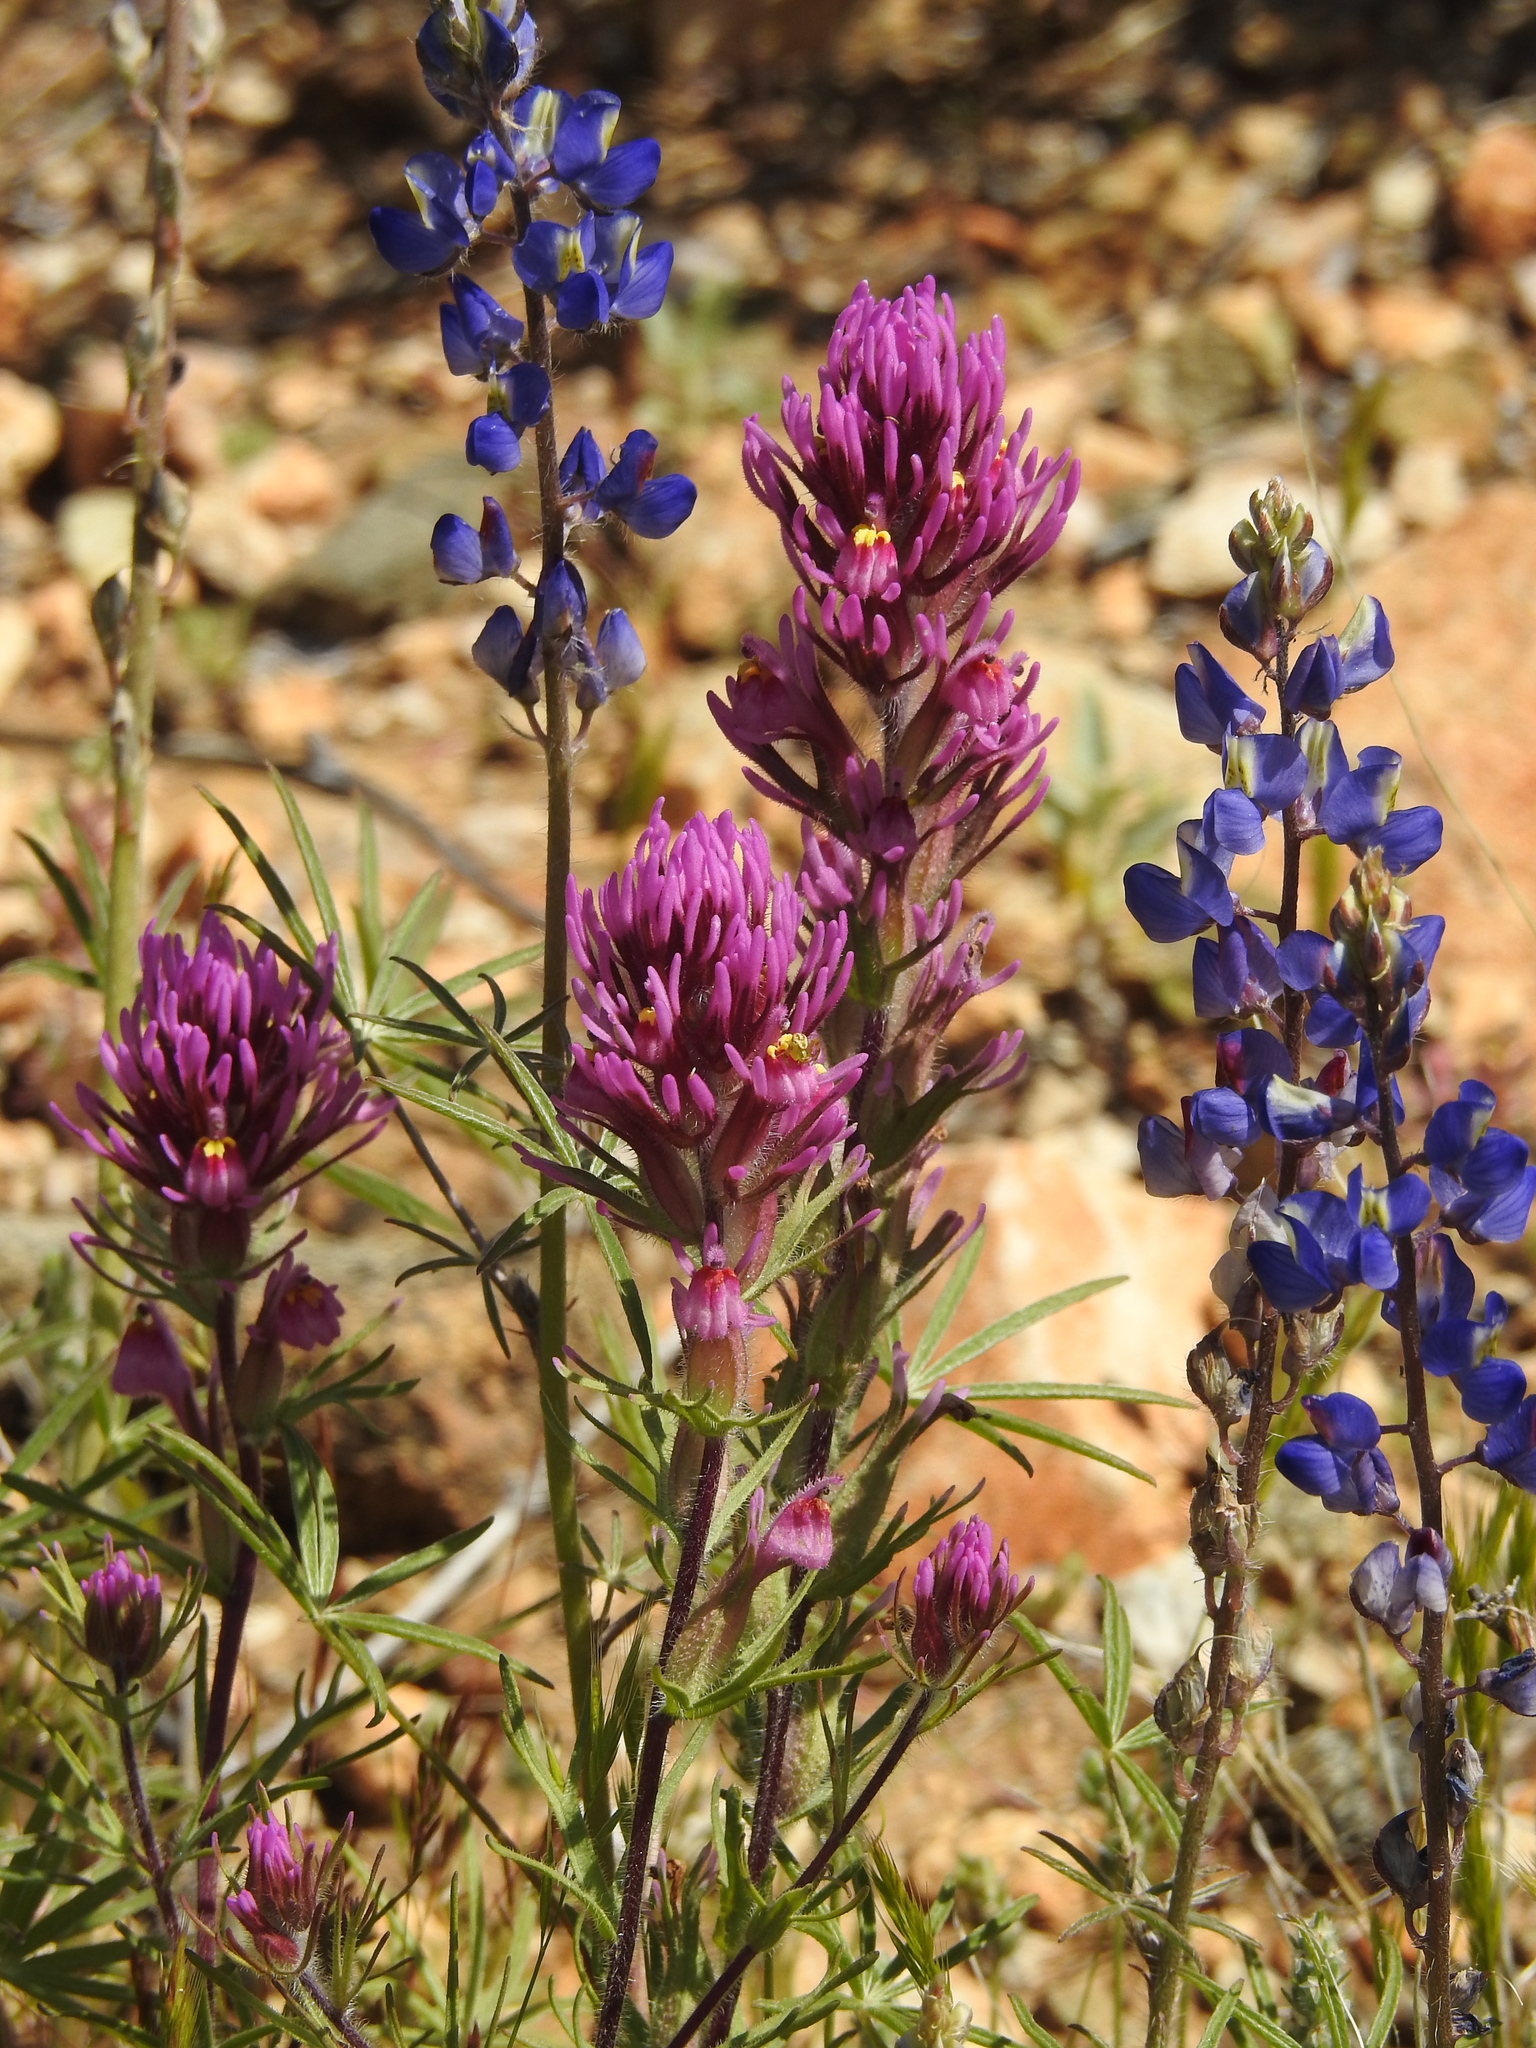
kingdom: Plantae
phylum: Tracheophyta
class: Magnoliopsida
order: Lamiales
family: Orobanchaceae
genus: Castilleja
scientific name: Castilleja exserta
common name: Purple owl-clover
